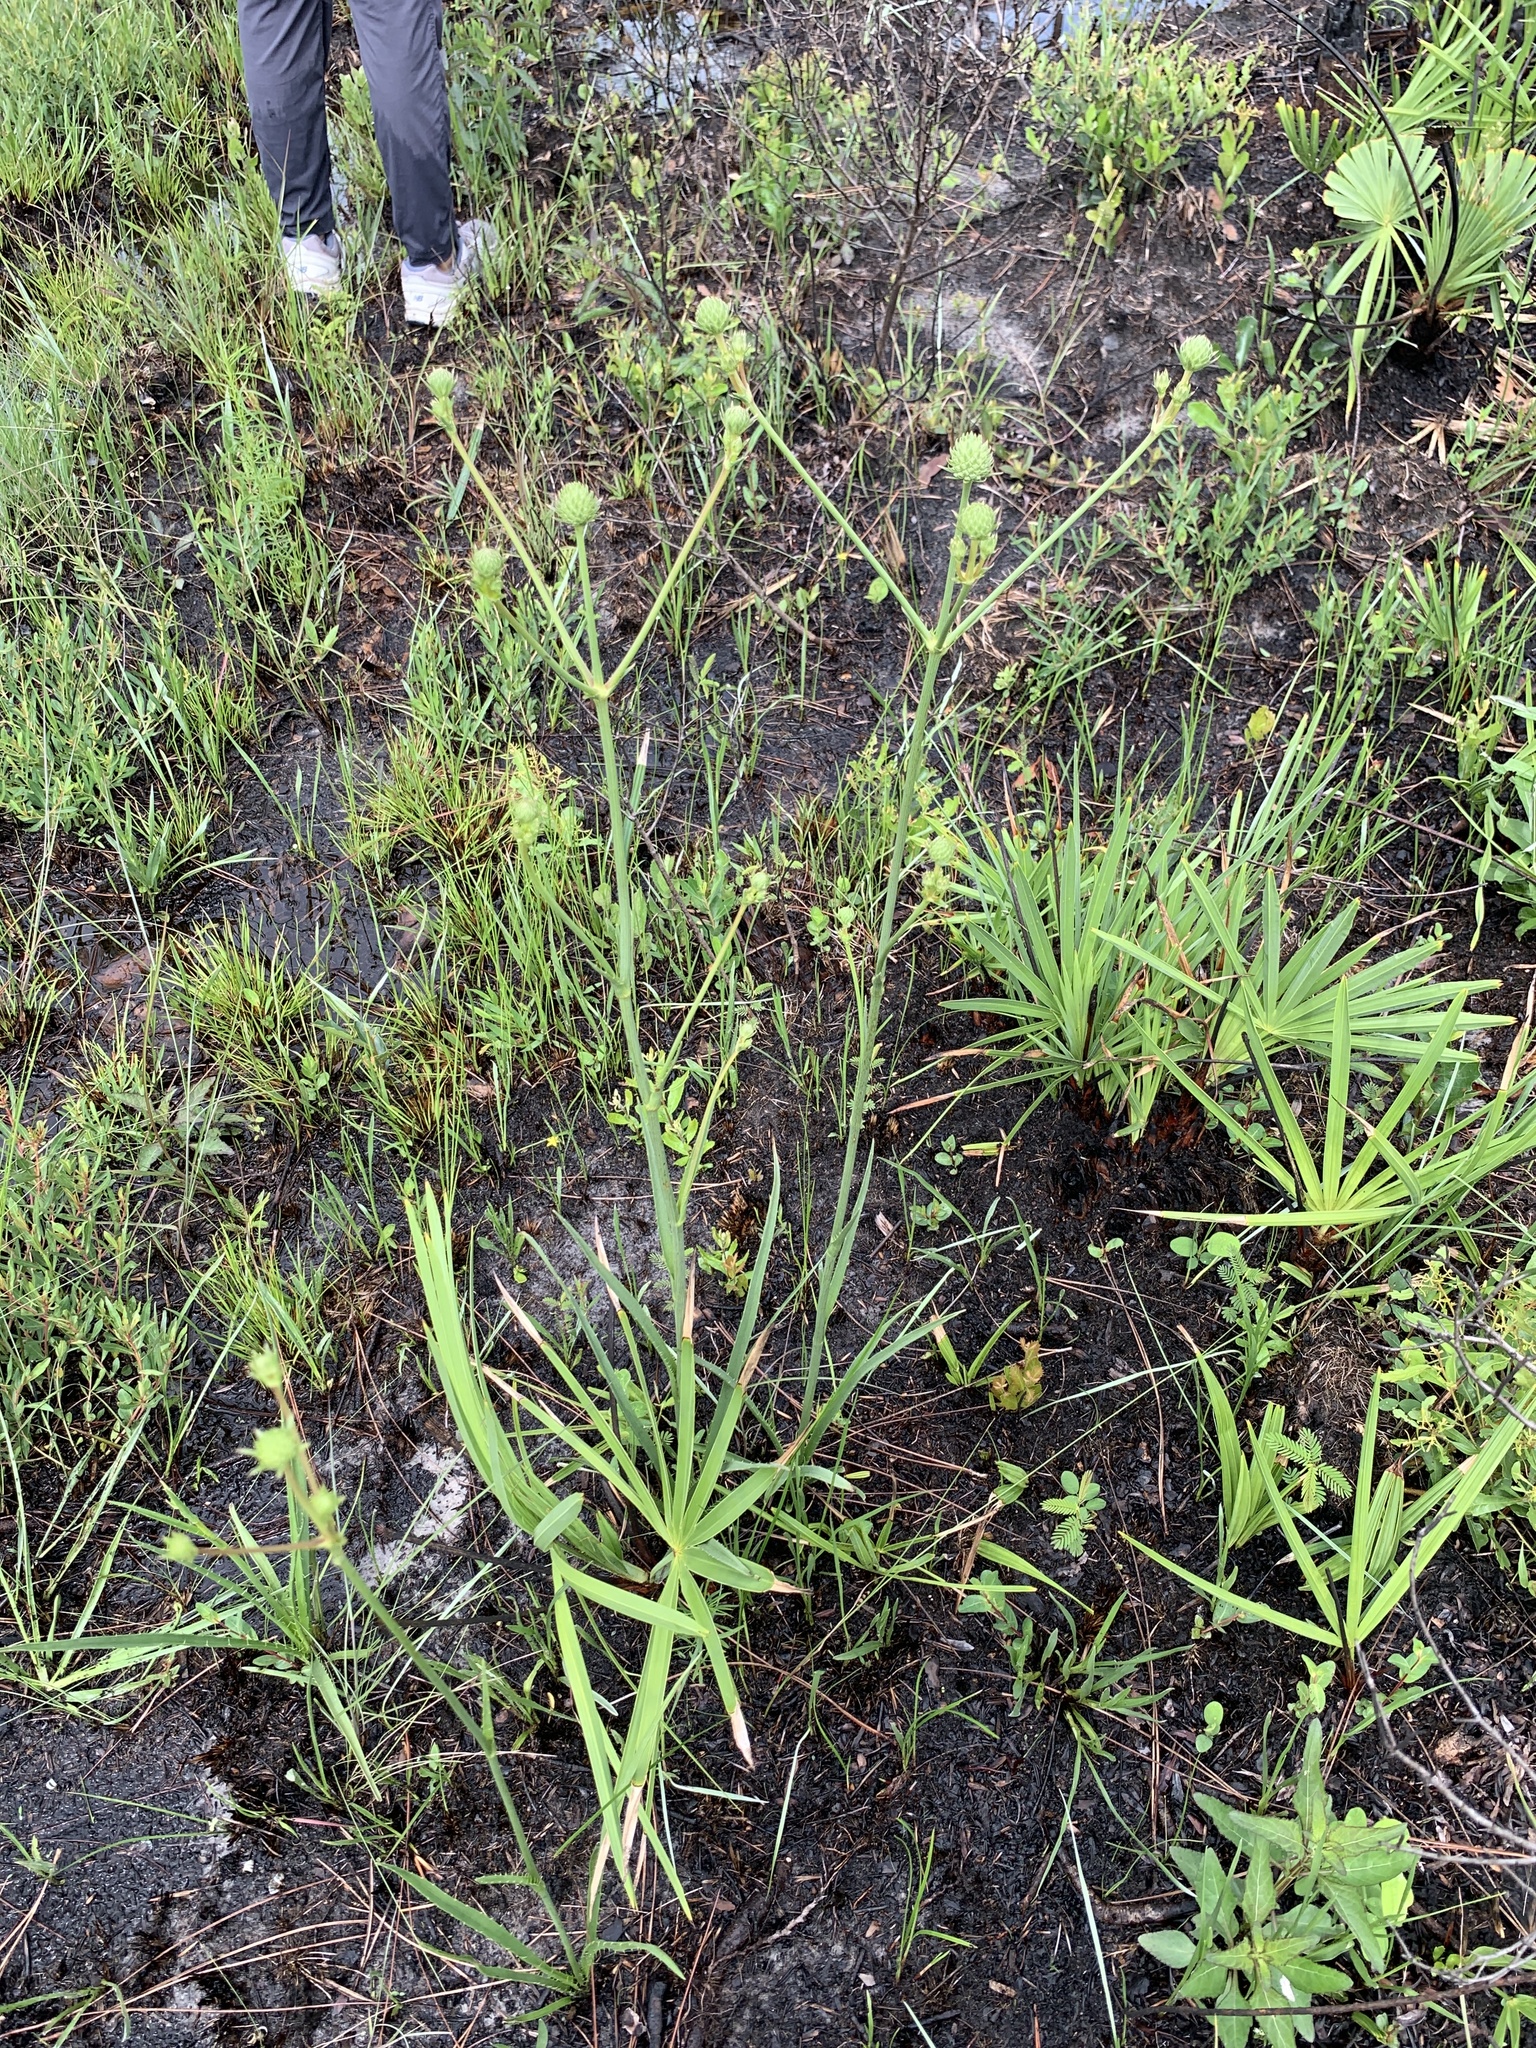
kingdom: Plantae
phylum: Tracheophyta
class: Magnoliopsida
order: Apiales
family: Apiaceae
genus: Eryngium
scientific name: Eryngium yuccifolium
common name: Button eryngo
